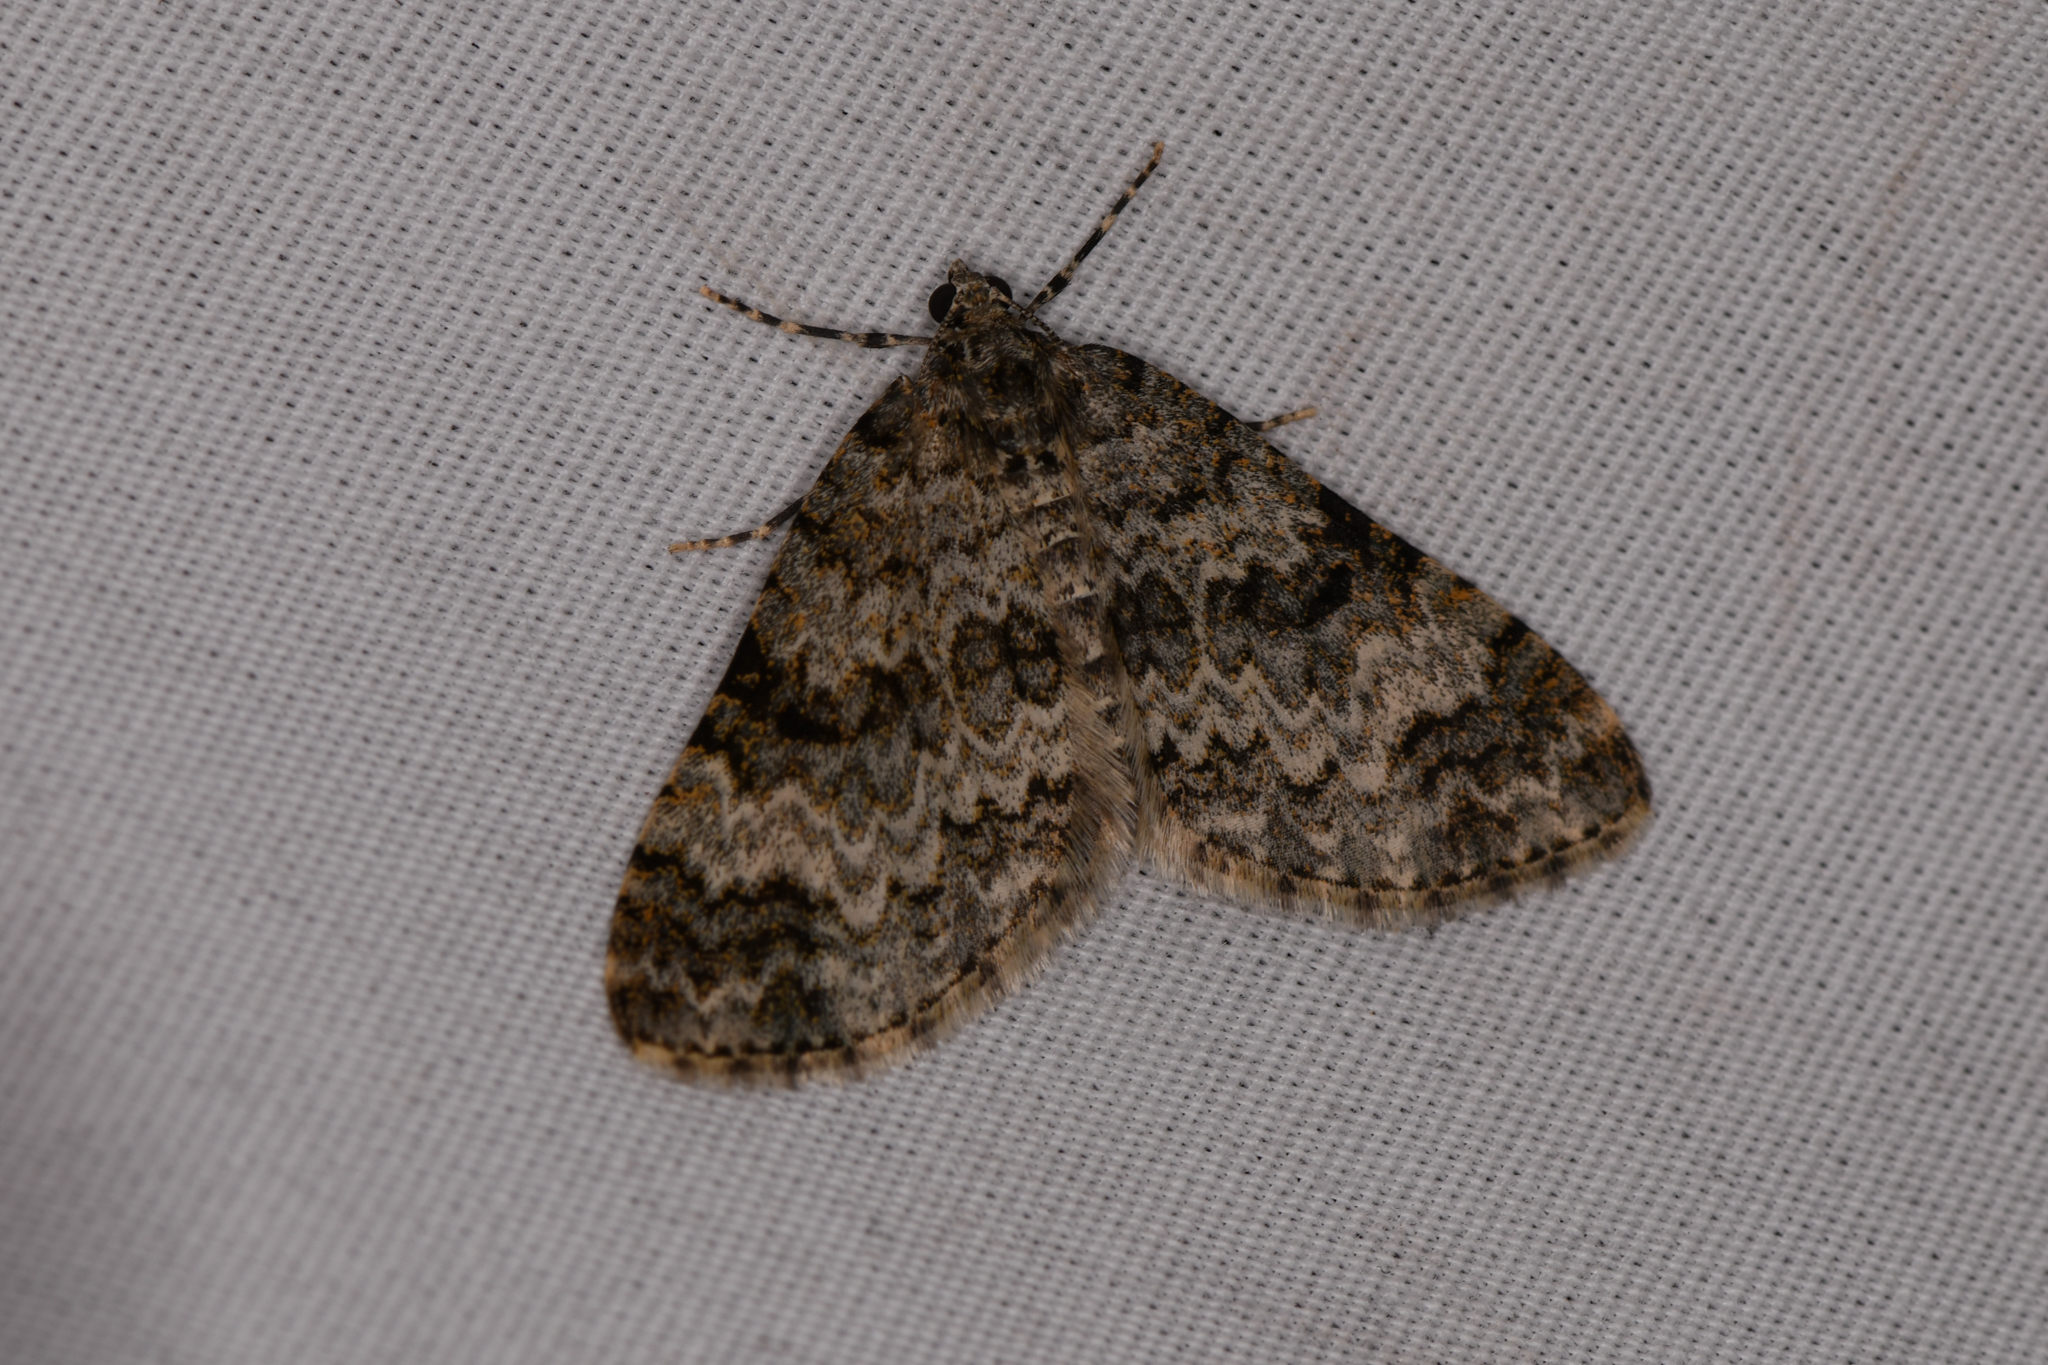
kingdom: Animalia
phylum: Arthropoda
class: Insecta
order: Lepidoptera
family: Geometridae
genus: Spargania
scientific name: Spargania magnoliata
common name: Double-banded carpet
